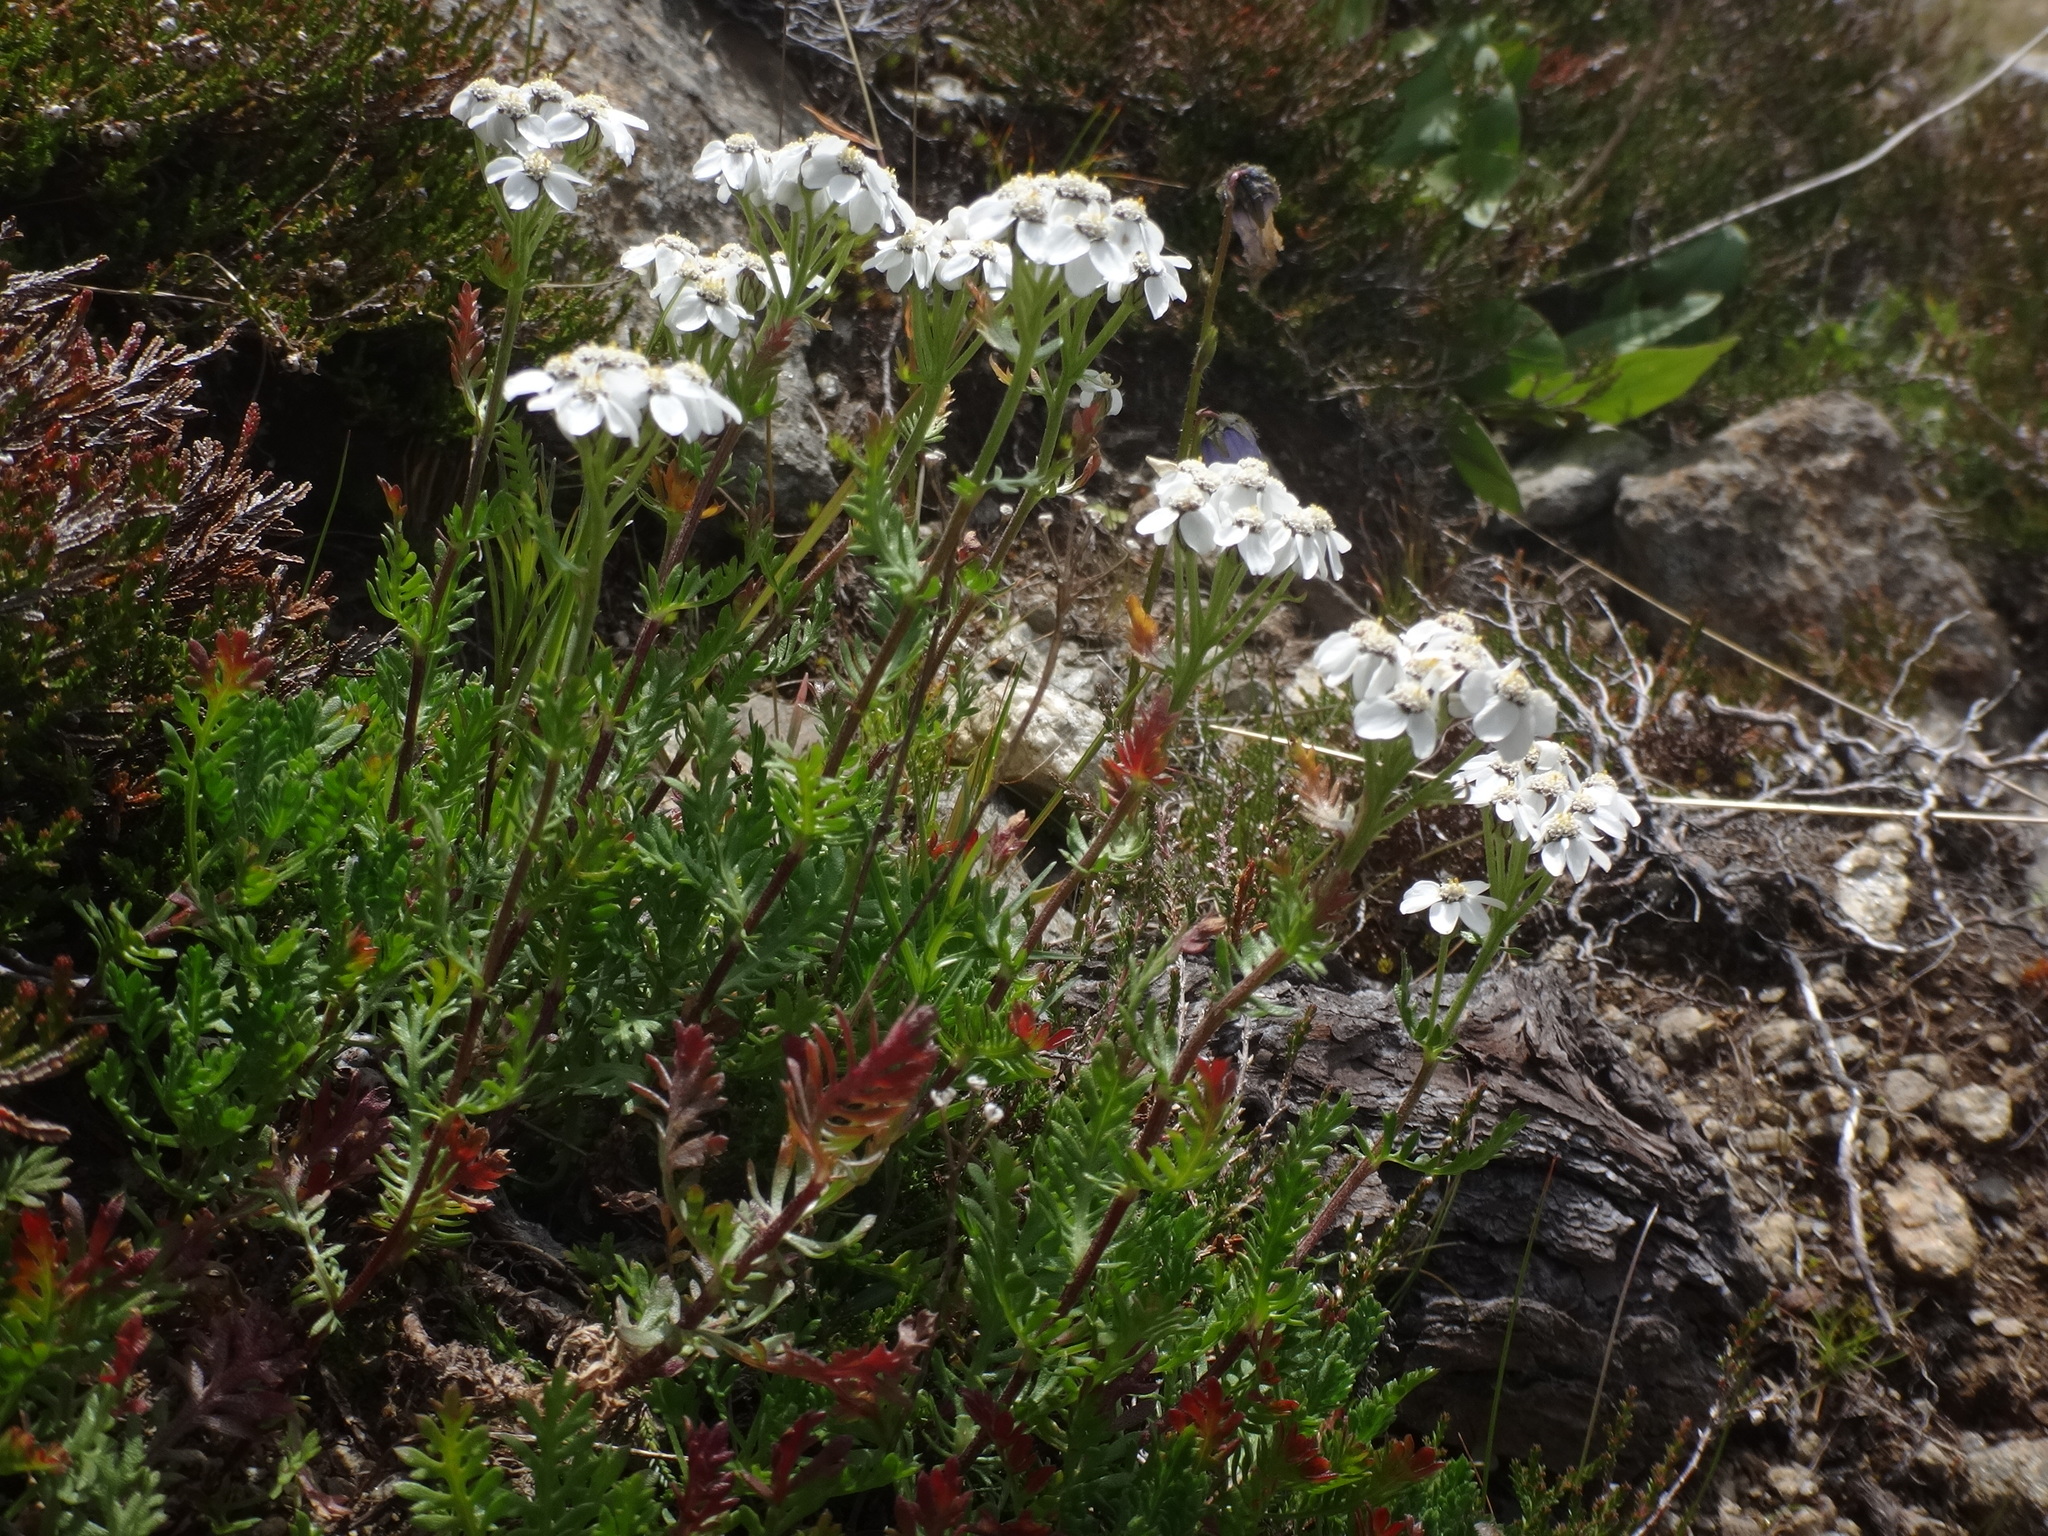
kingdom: Plantae
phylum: Tracheophyta
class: Magnoliopsida
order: Asterales
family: Asteraceae
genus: Achillea
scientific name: Achillea erba-rotta
